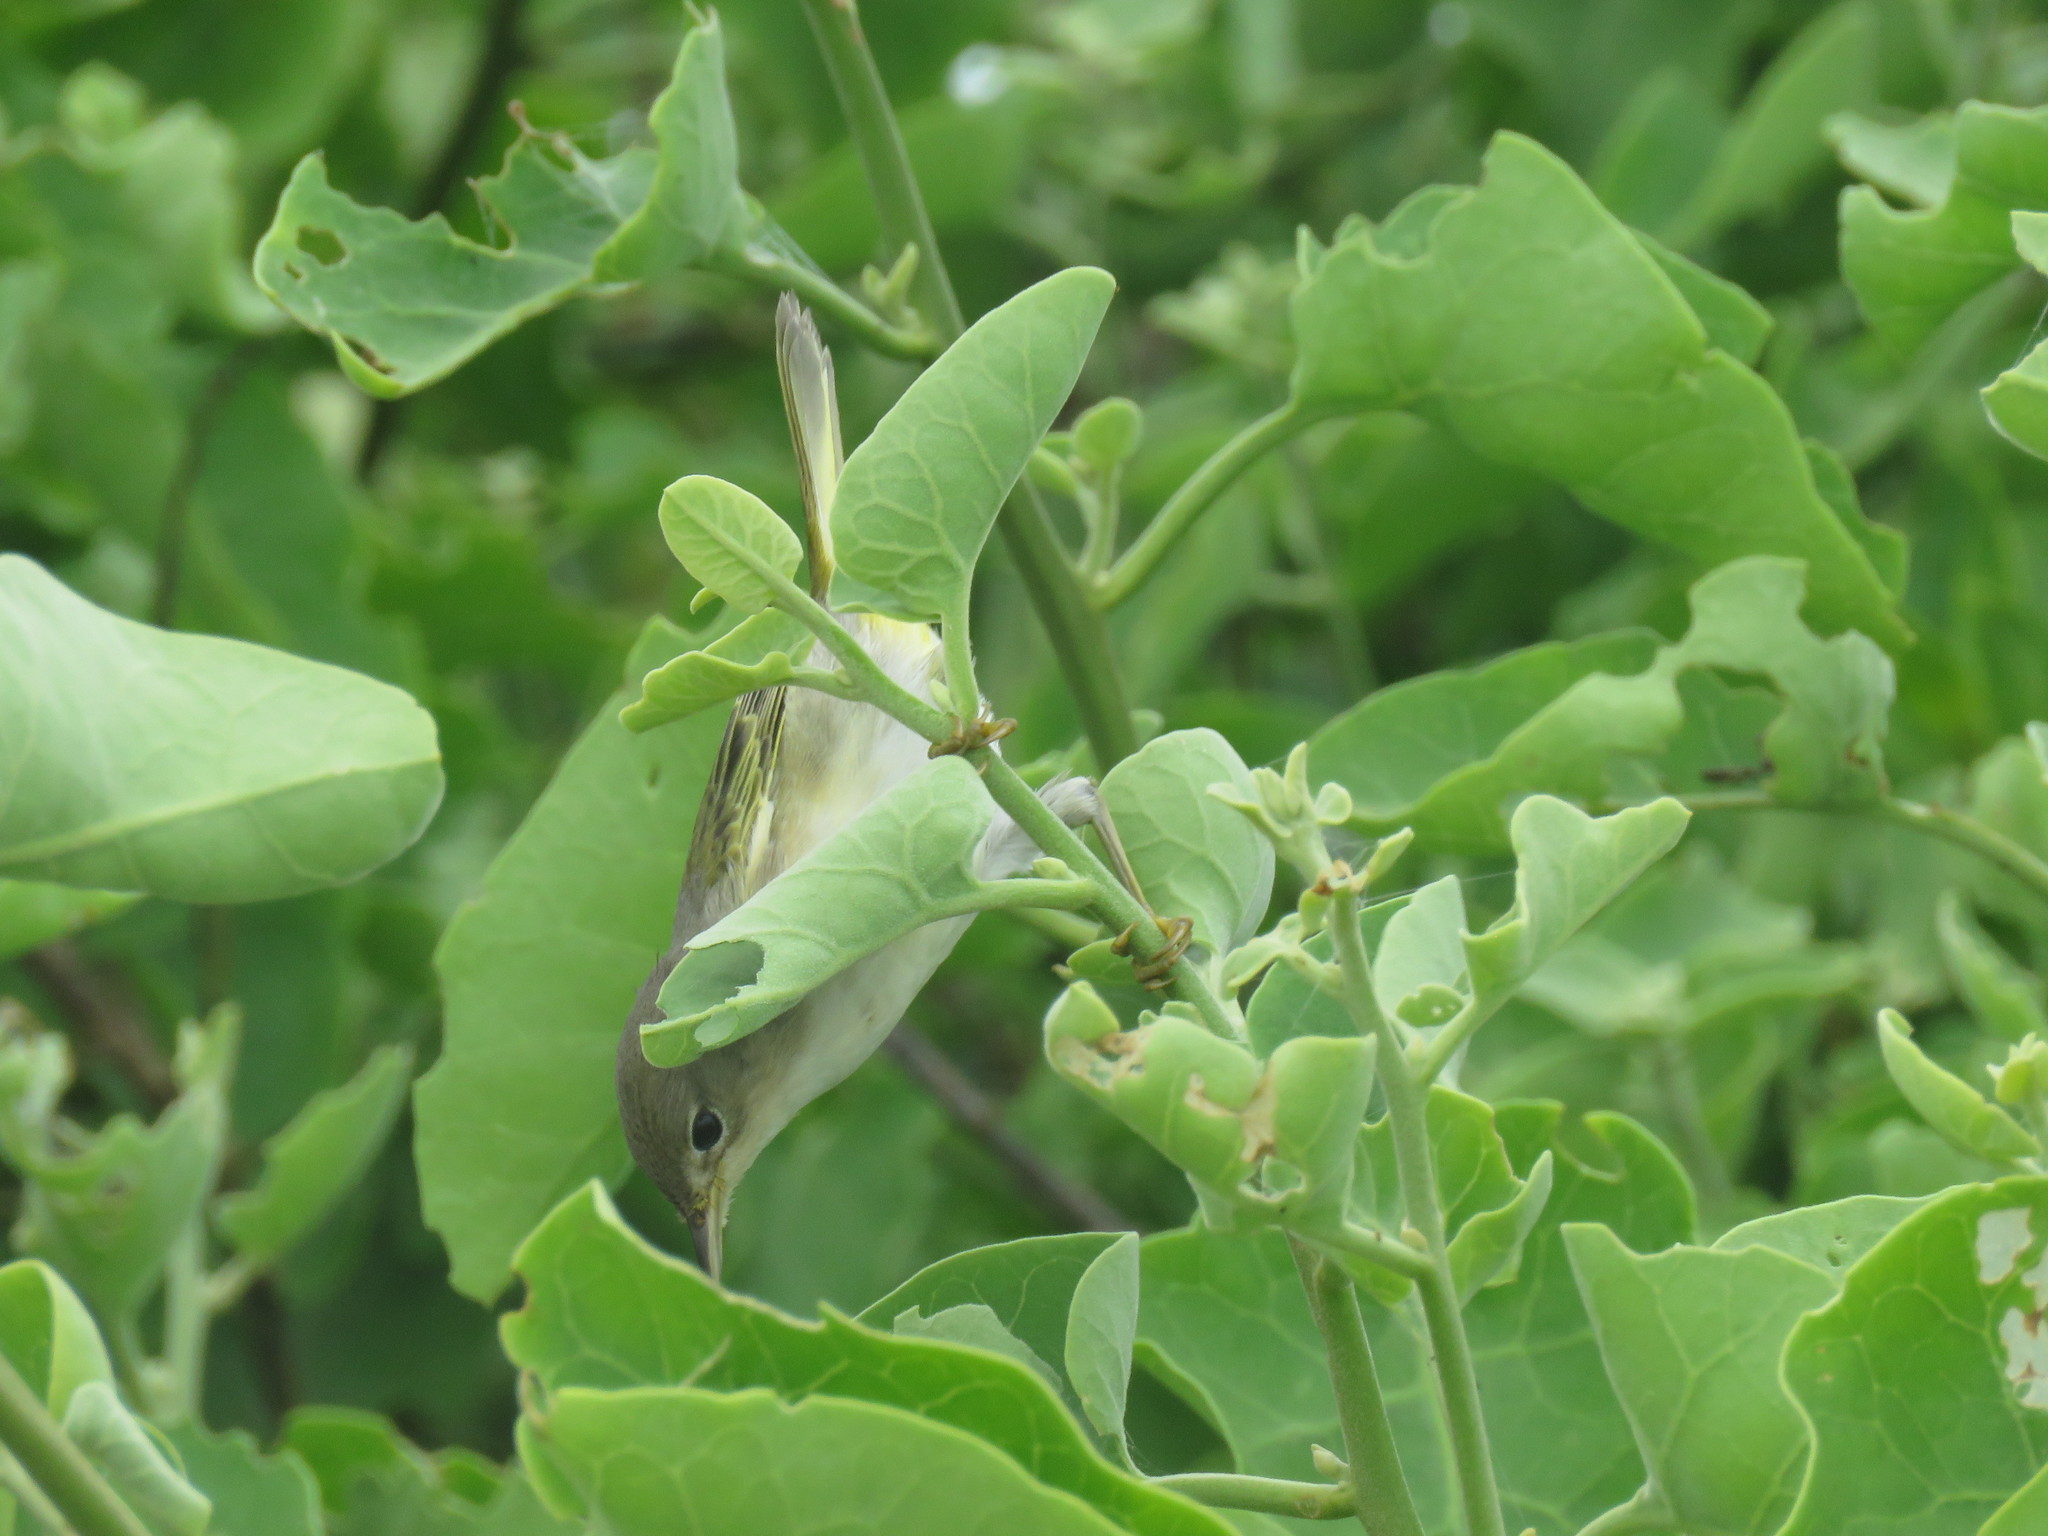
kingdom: Animalia
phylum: Chordata
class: Aves
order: Passeriformes
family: Parulidae
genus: Setophaga
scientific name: Setophaga petechia
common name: Yellow warbler
